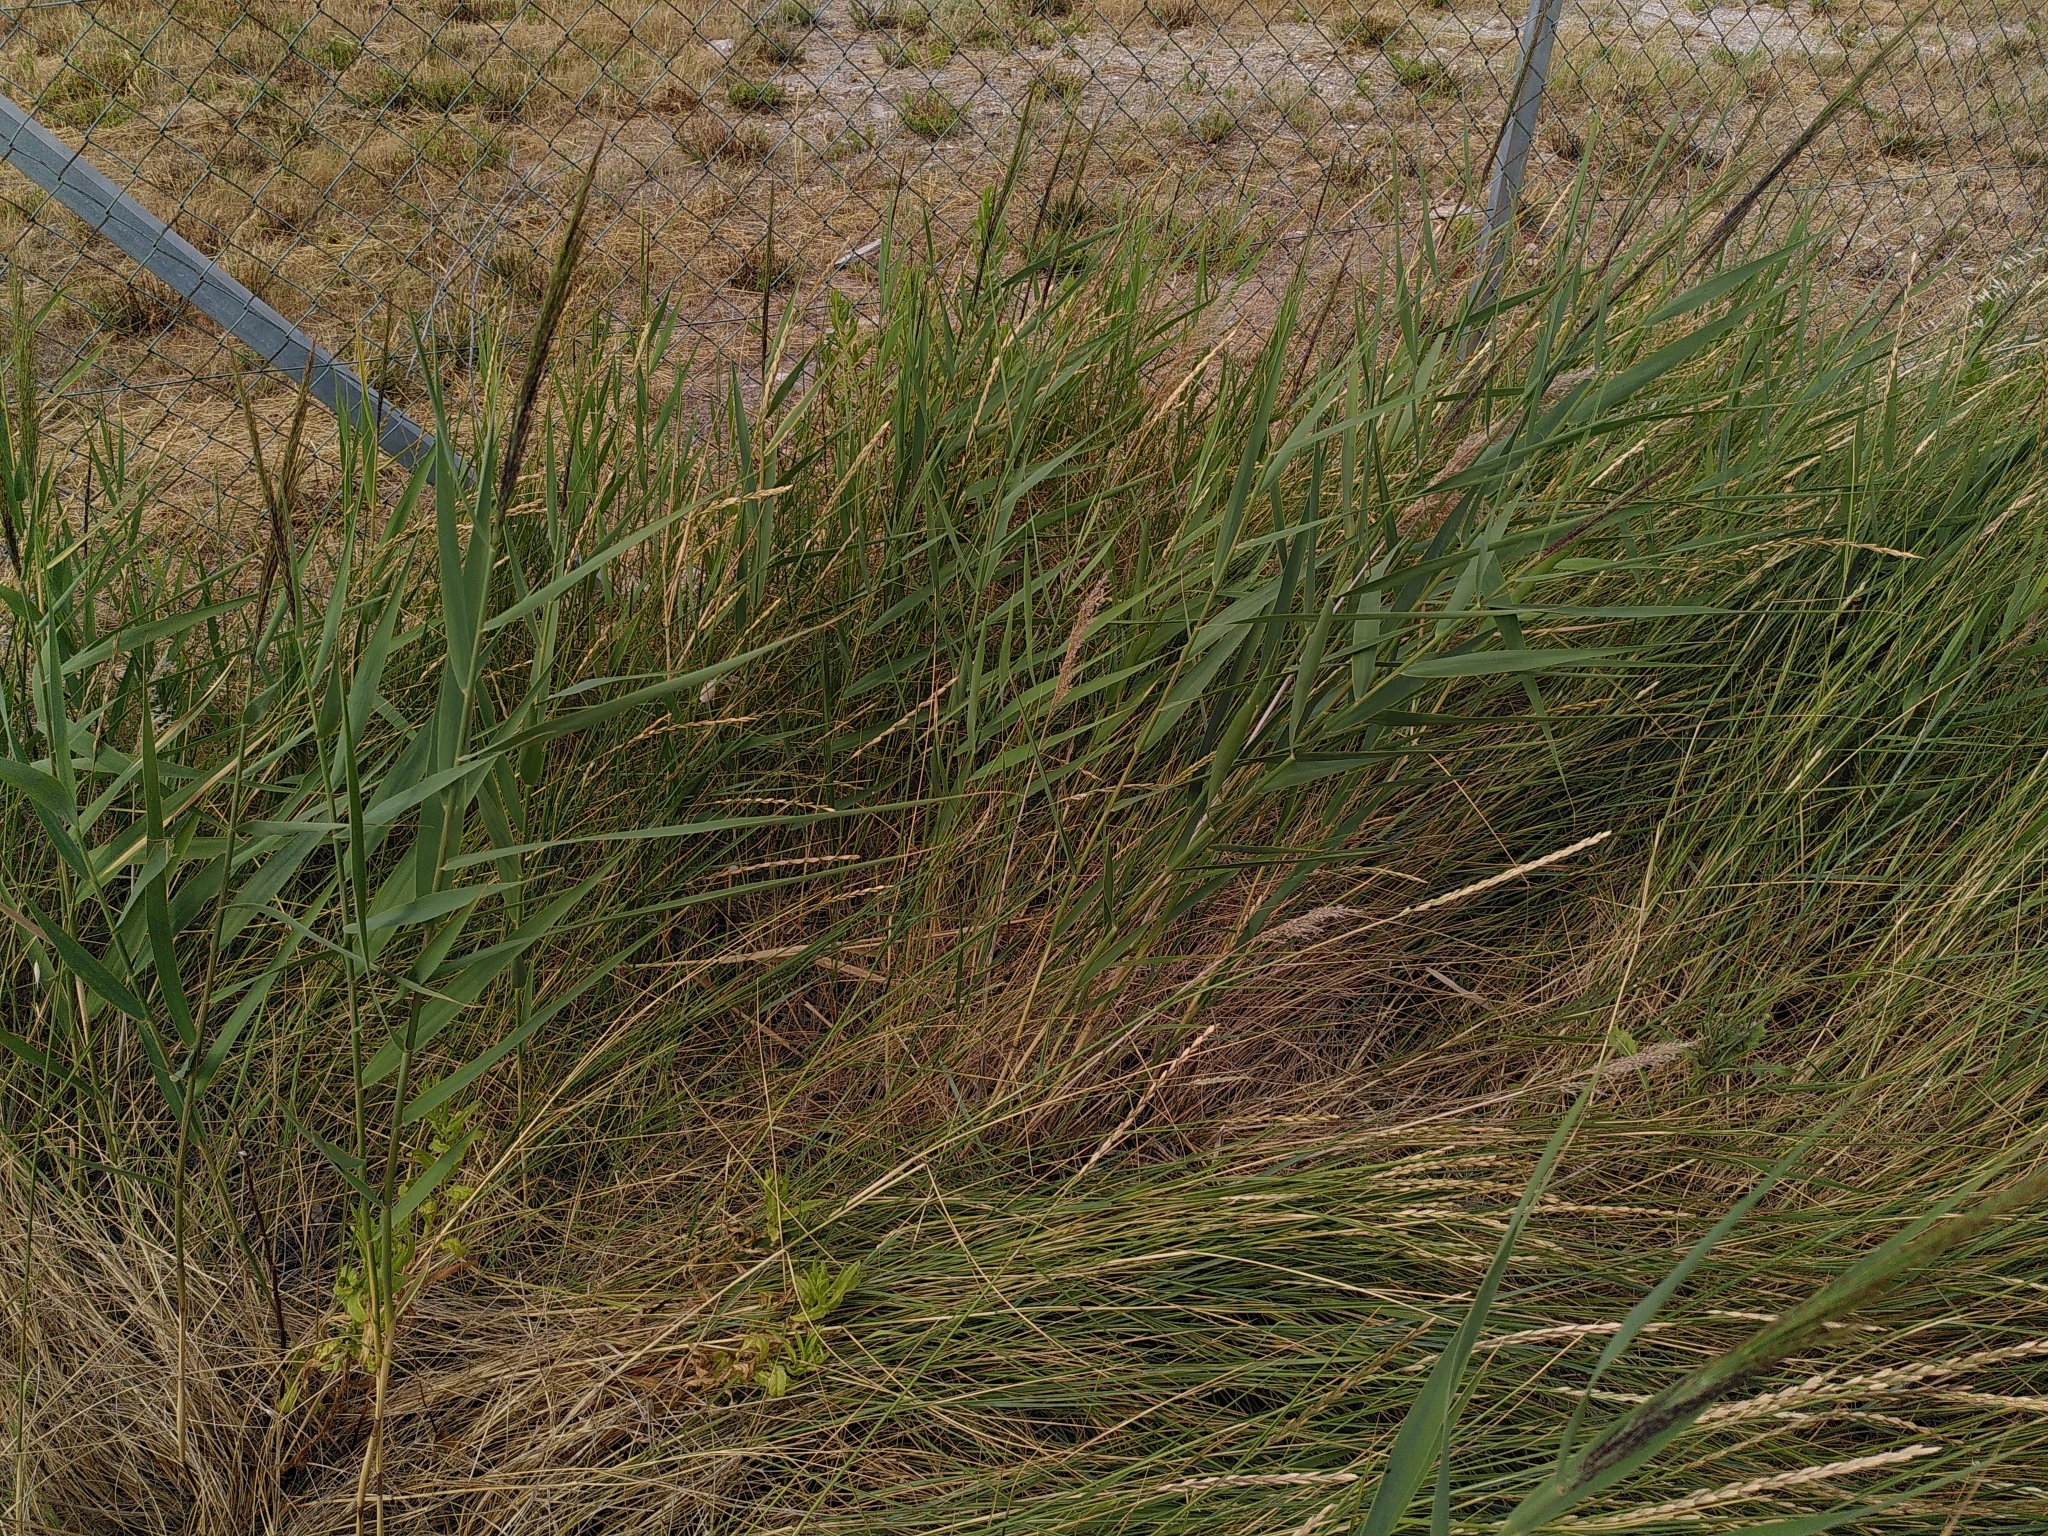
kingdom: Plantae
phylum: Tracheophyta
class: Liliopsida
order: Poales
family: Poaceae
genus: Phragmites
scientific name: Phragmites australis
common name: Common reed
